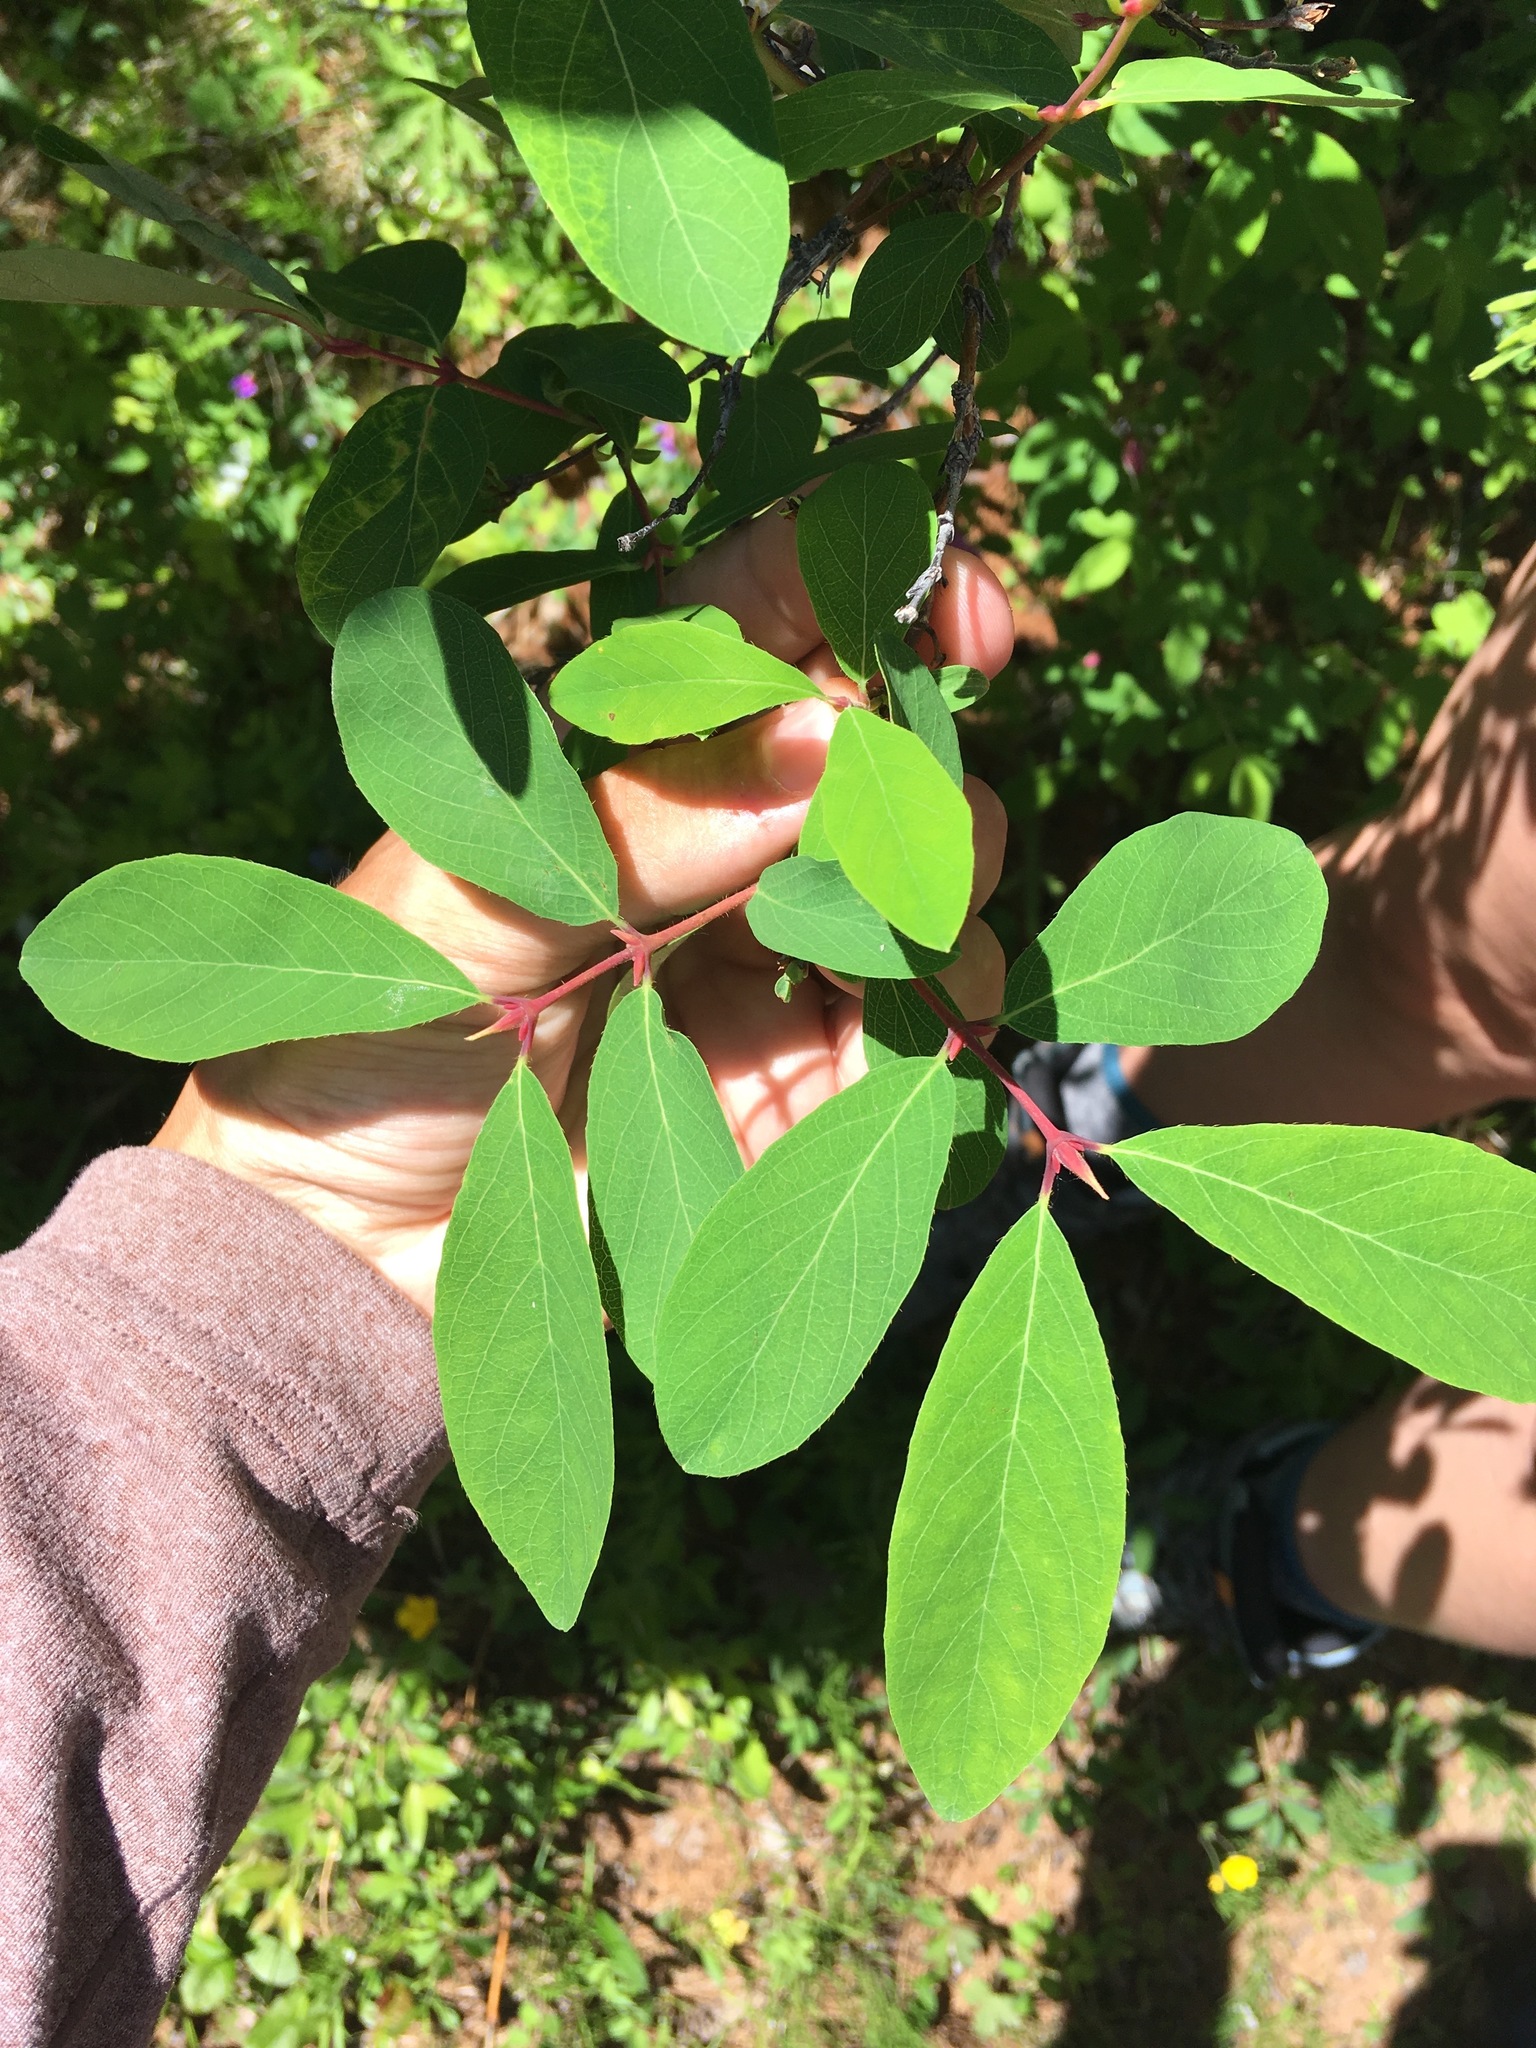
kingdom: Plantae
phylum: Tracheophyta
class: Magnoliopsida
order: Dipsacales
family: Caprifoliaceae
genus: Lonicera
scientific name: Lonicera caerulea
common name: Blue honeysuckle
